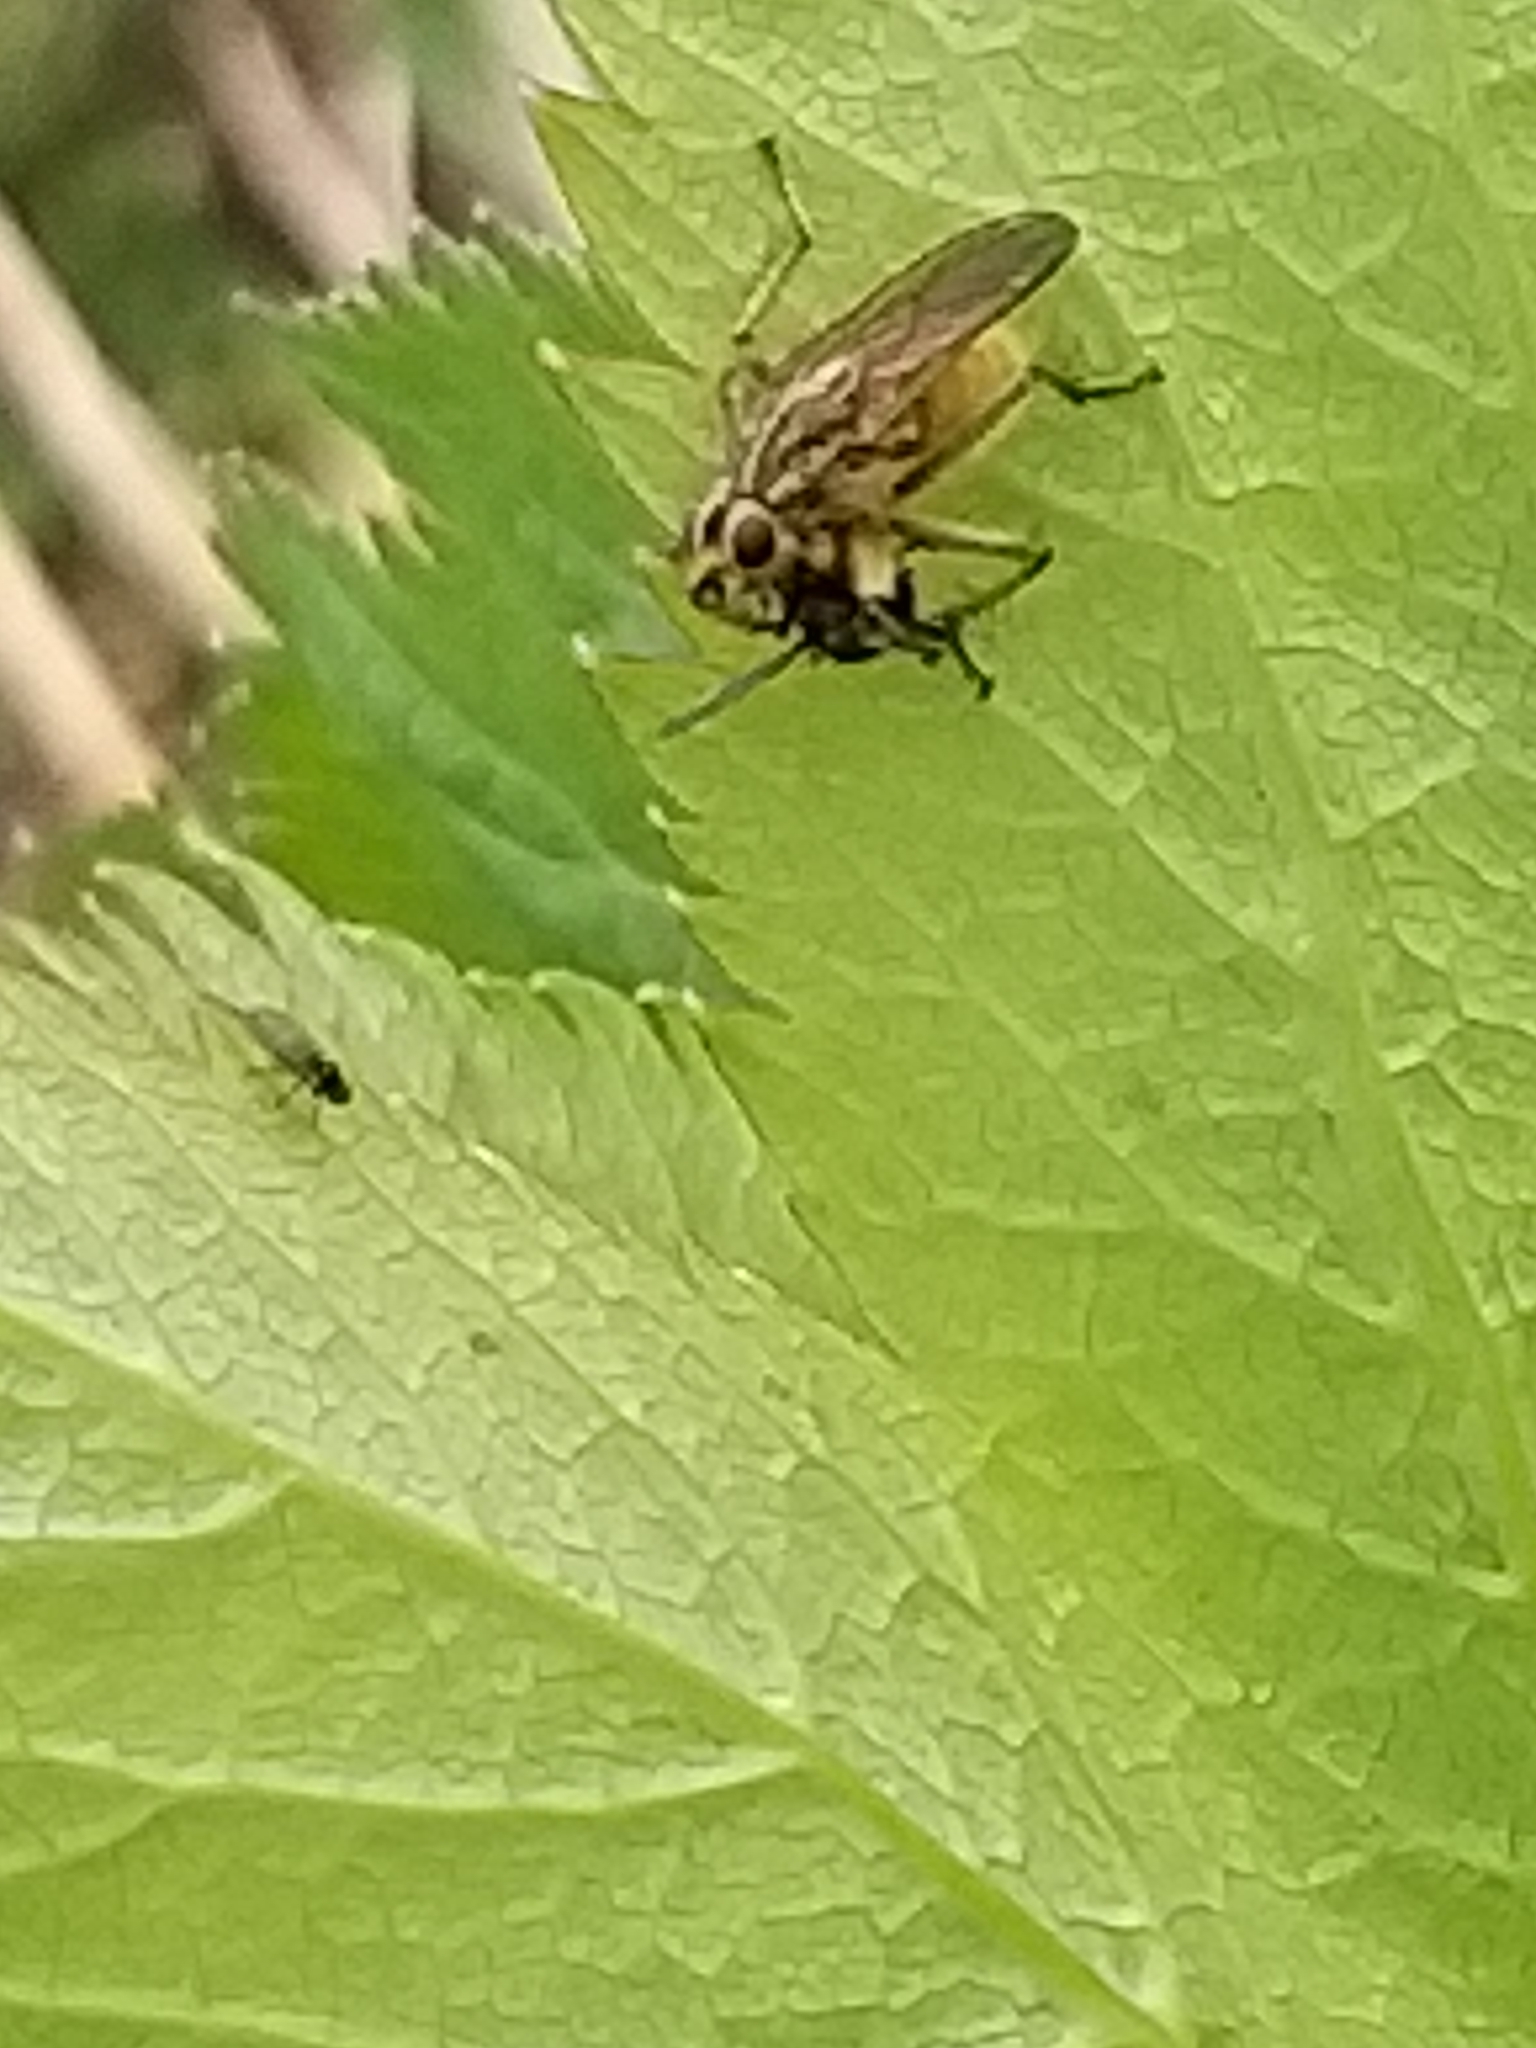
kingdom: Animalia
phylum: Arthropoda
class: Insecta
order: Diptera
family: Scathophagidae
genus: Scathophaga
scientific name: Scathophaga stercoraria
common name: Yellow dung fly
